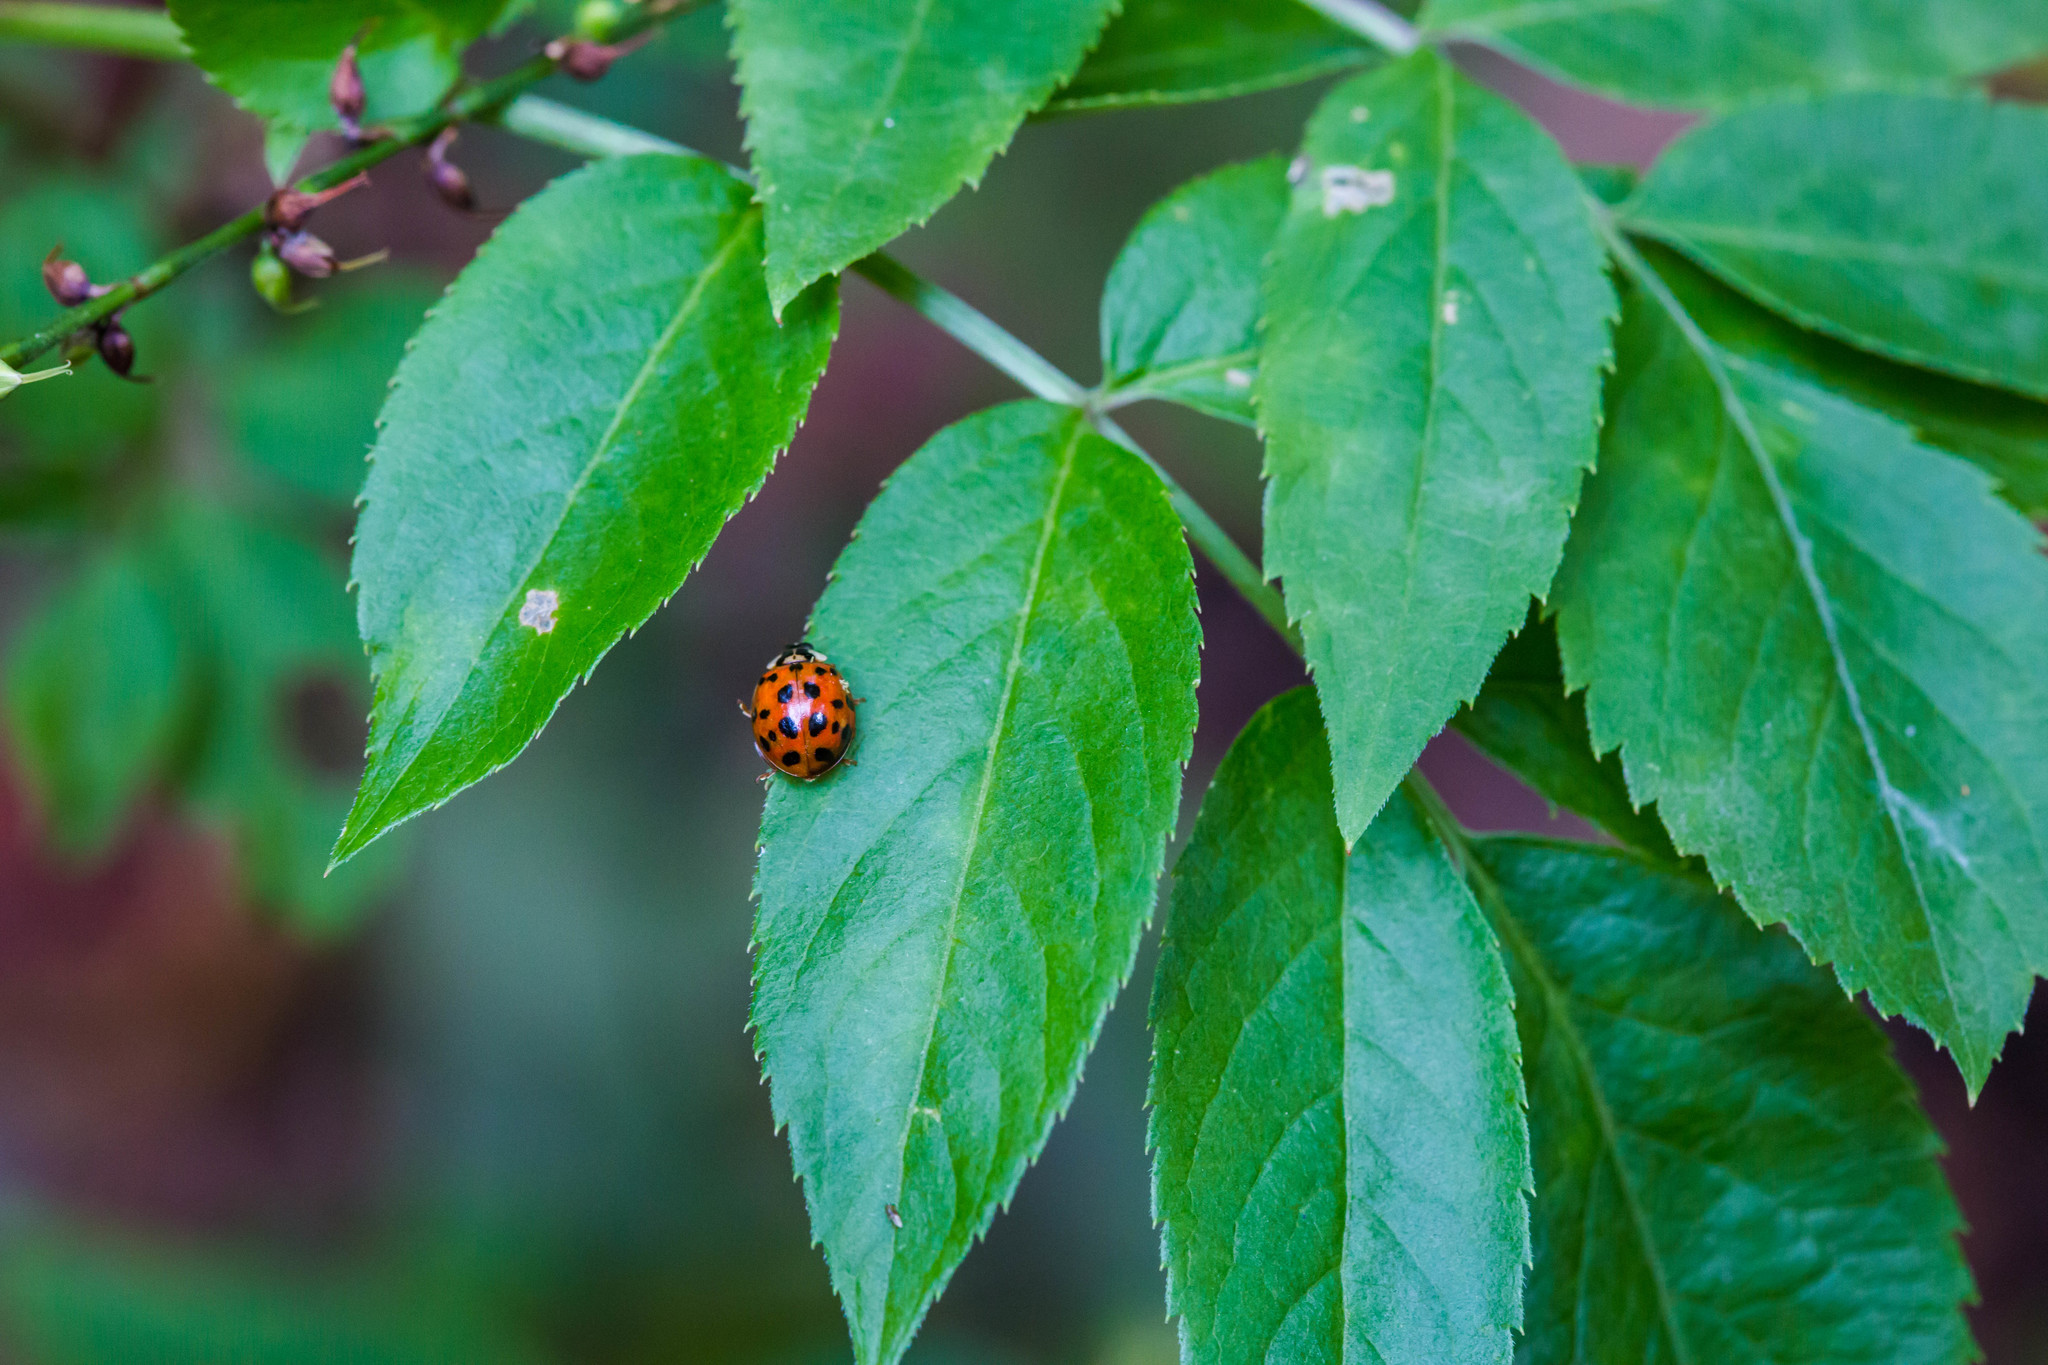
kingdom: Animalia
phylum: Arthropoda
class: Insecta
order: Coleoptera
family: Coccinellidae
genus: Harmonia
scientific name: Harmonia axyridis
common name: Harlequin ladybird
